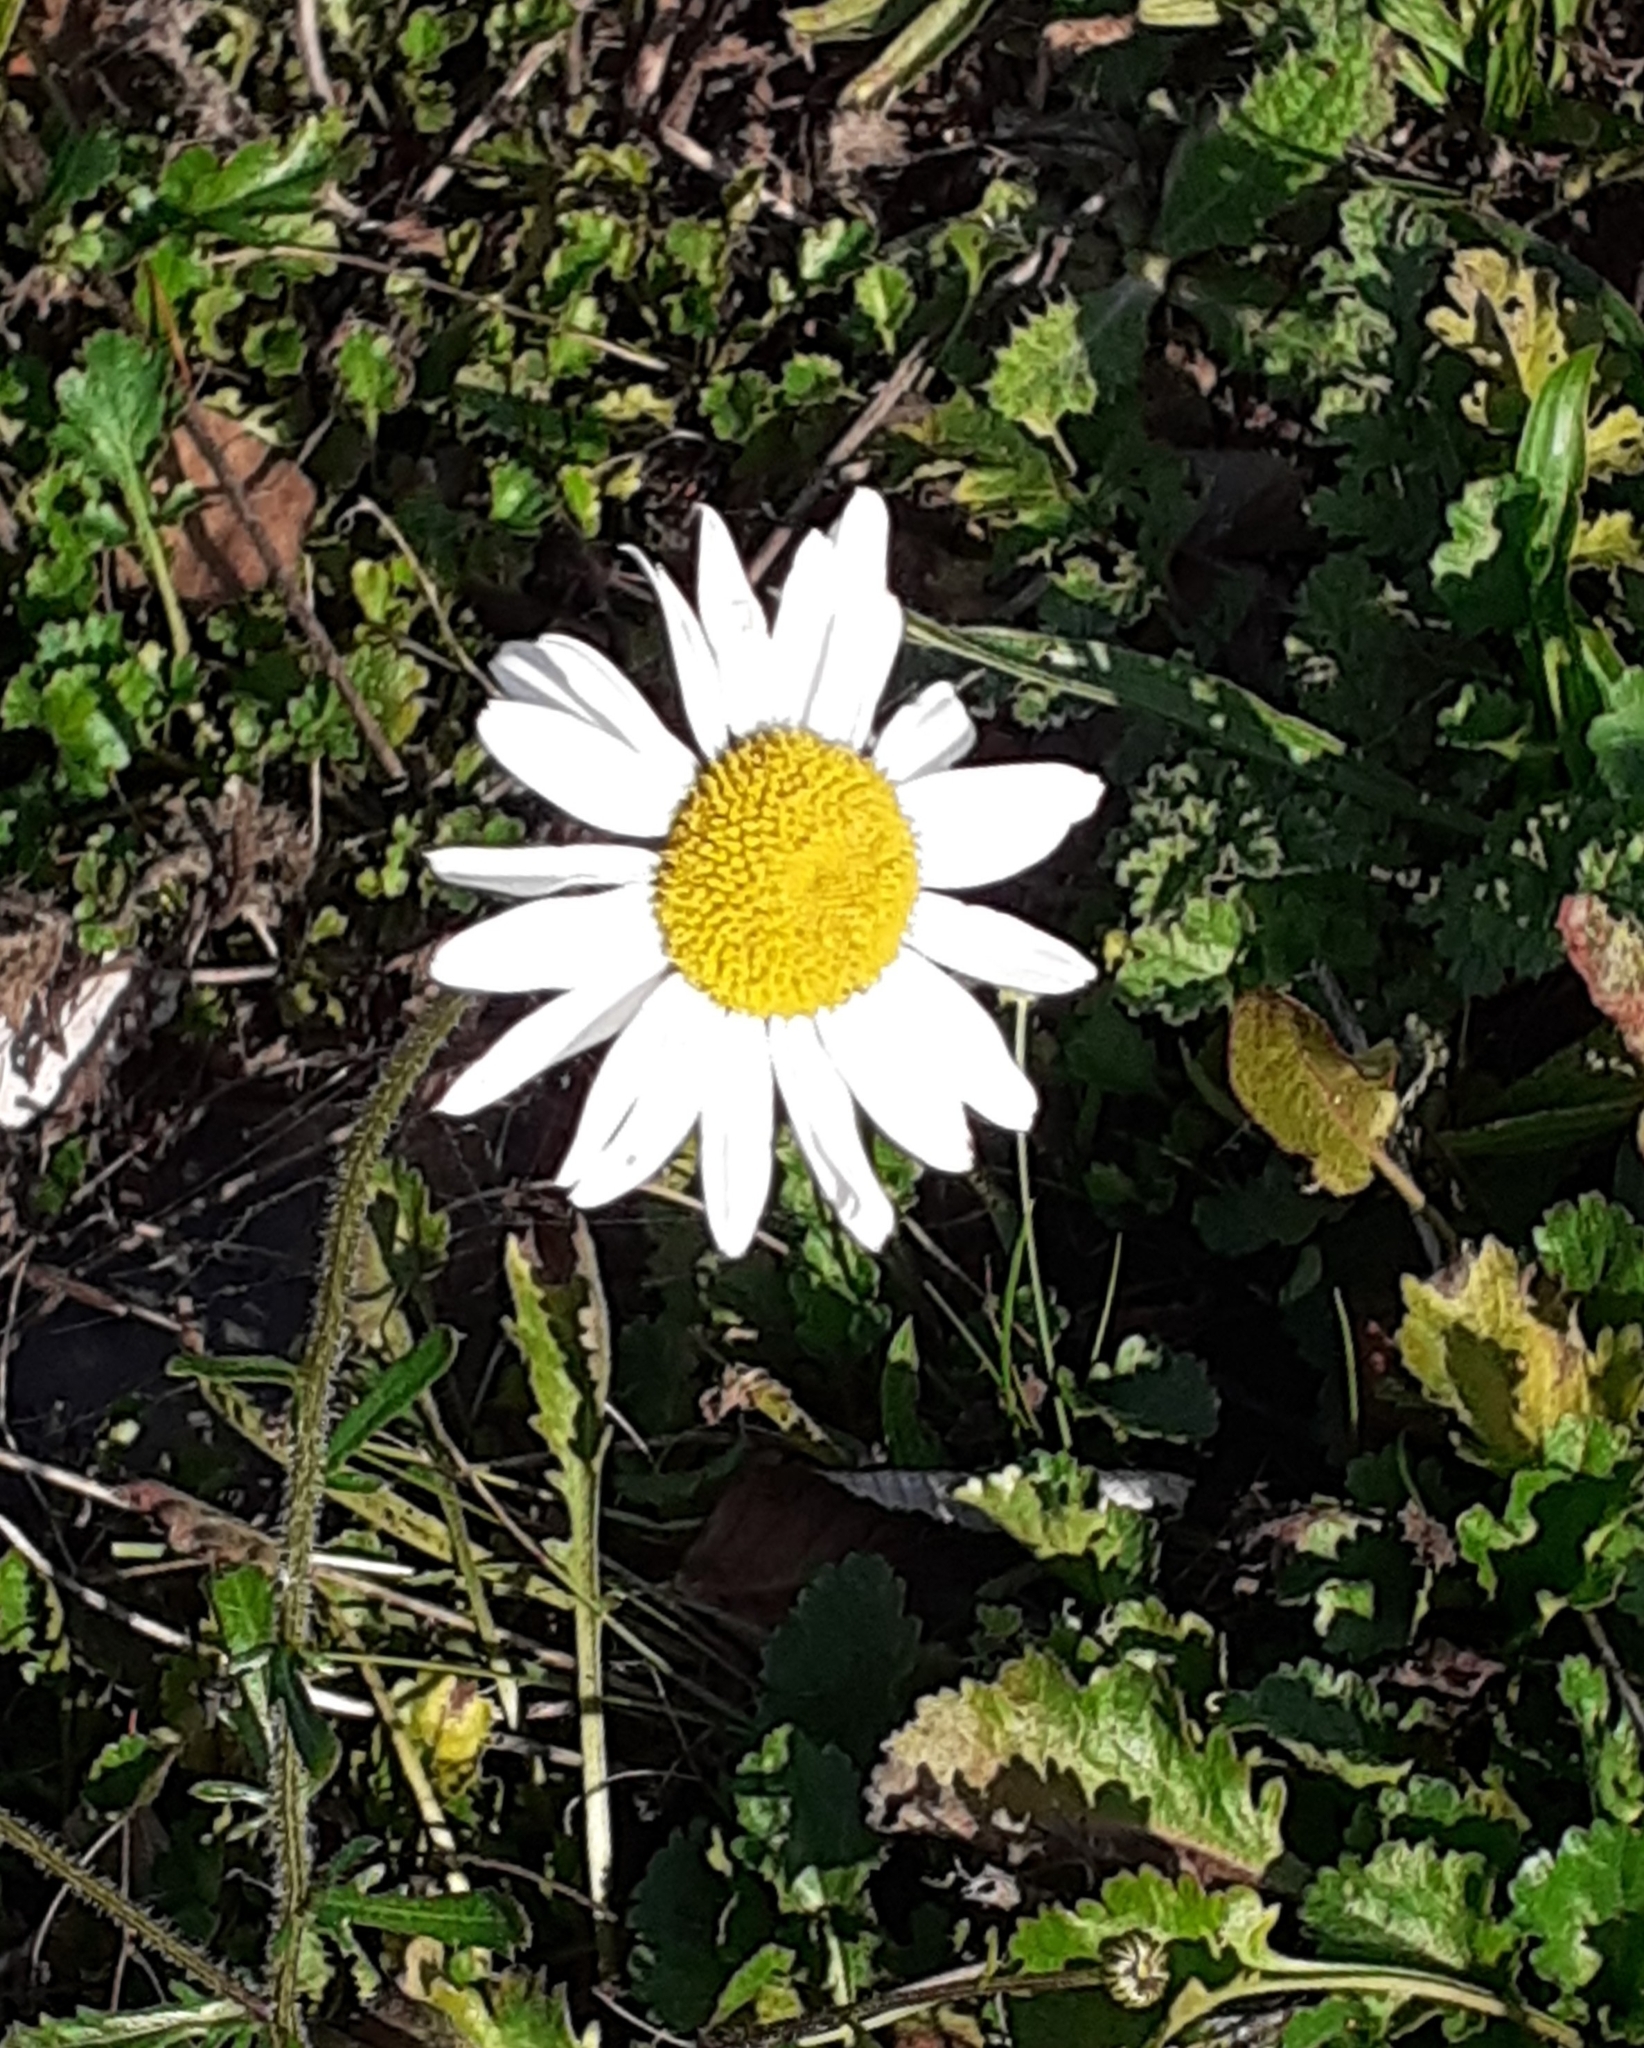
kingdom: Plantae
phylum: Tracheophyta
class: Magnoliopsida
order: Asterales
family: Asteraceae
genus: Leucanthemum
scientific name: Leucanthemum vulgare
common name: Oxeye daisy
